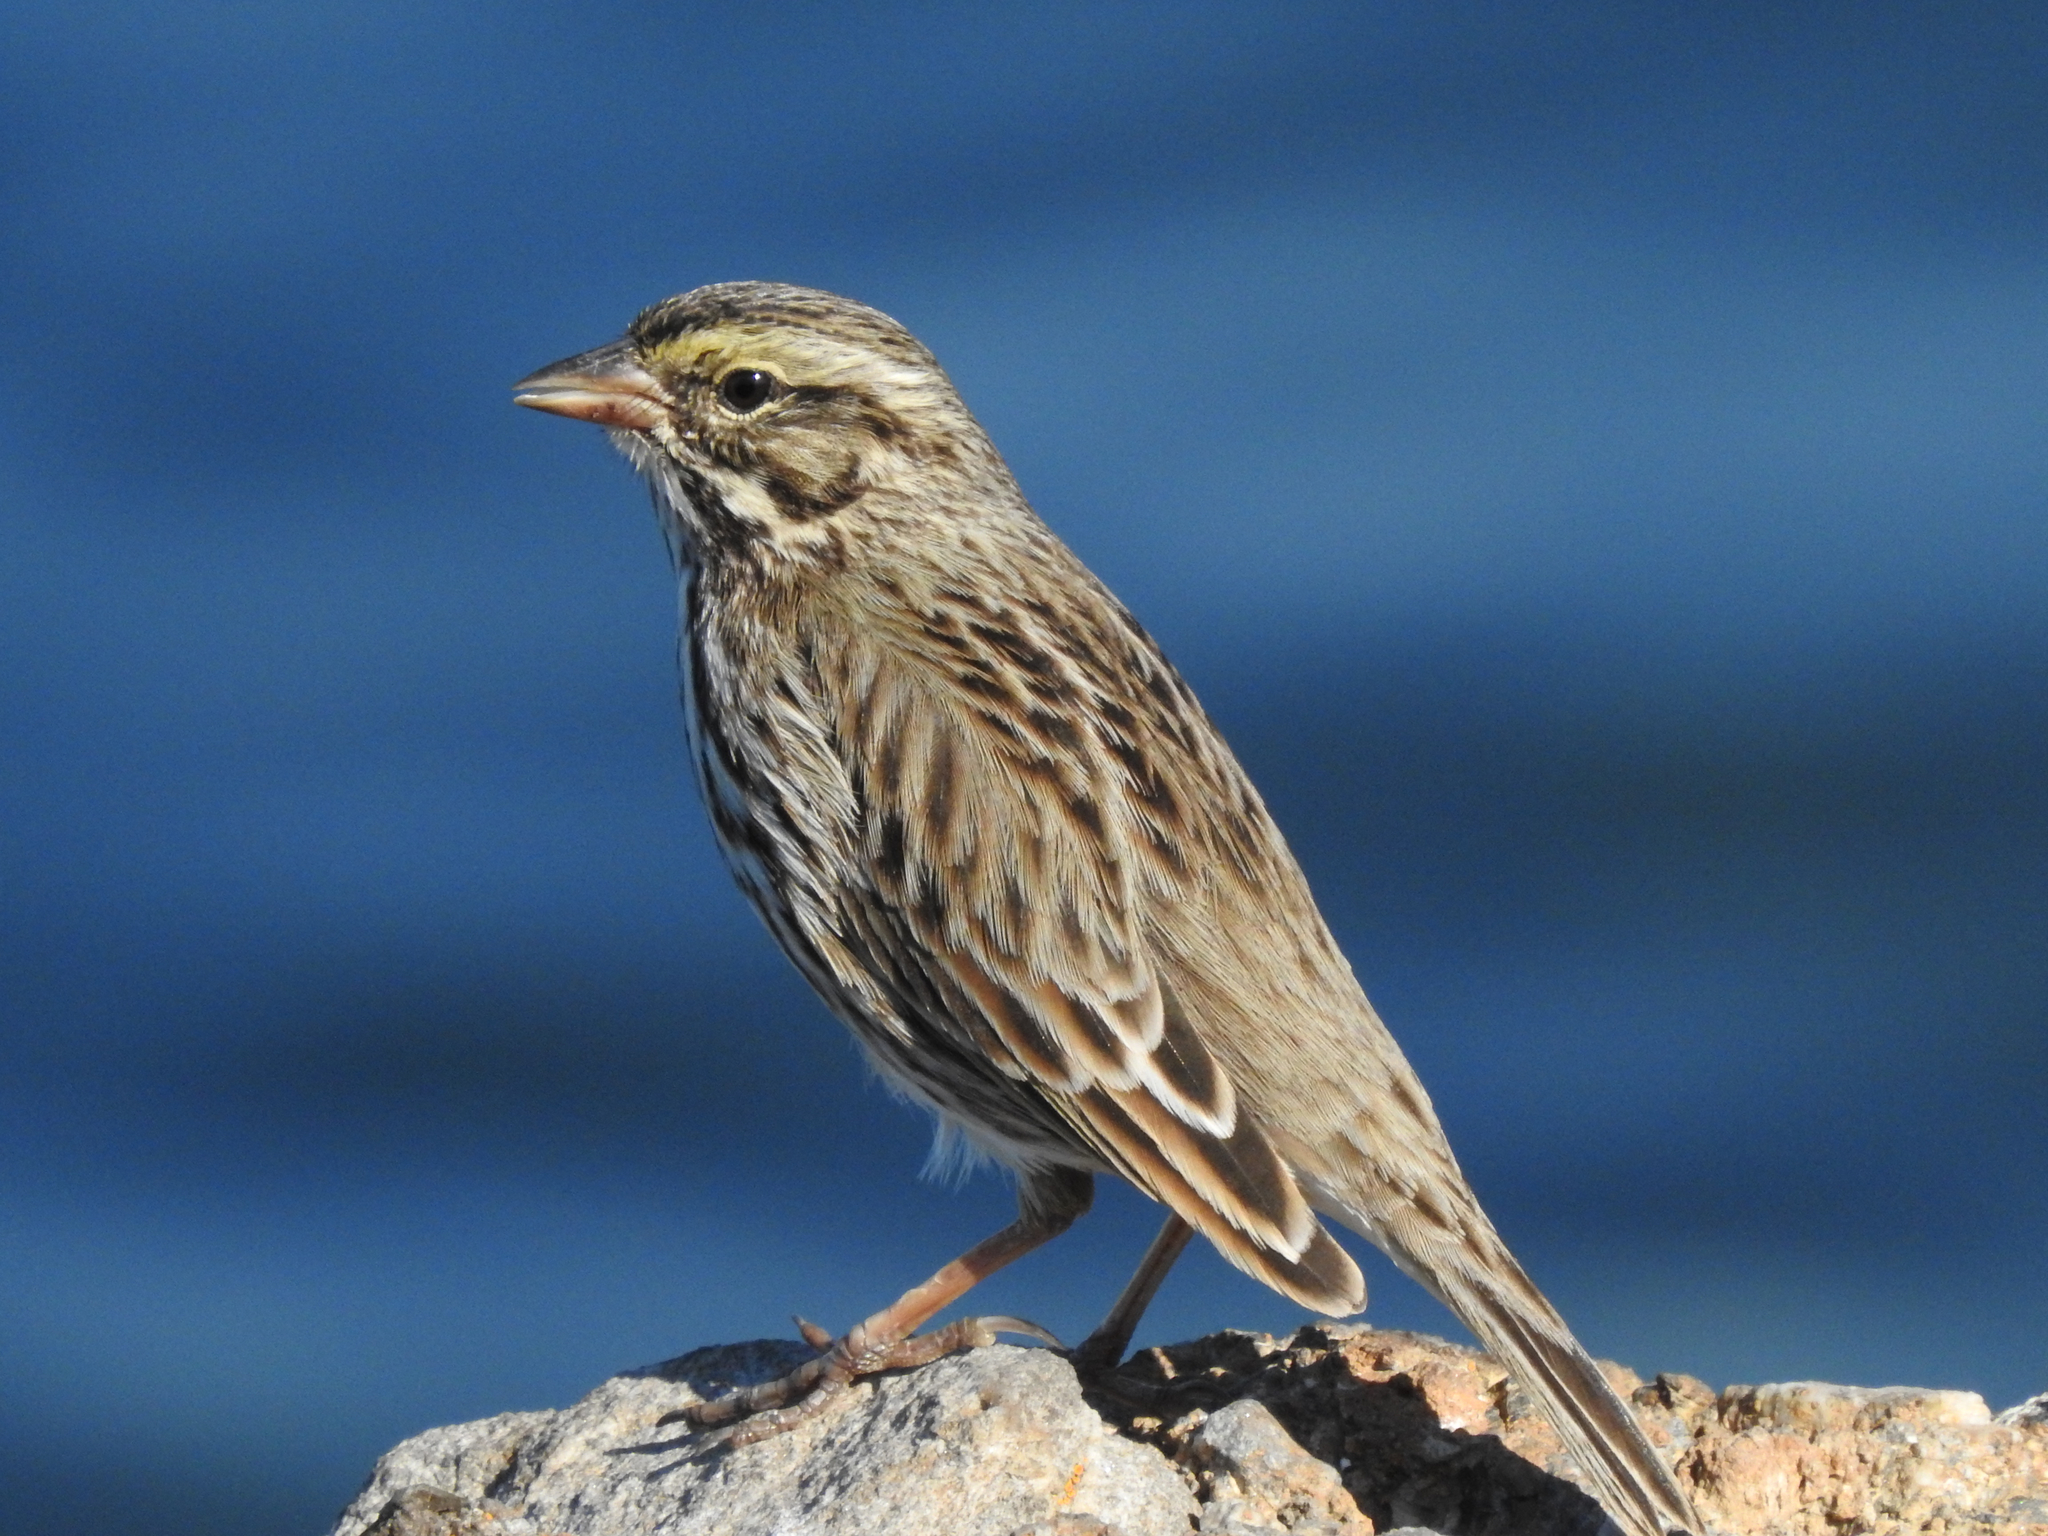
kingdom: Animalia
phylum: Chordata
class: Aves
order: Passeriformes
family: Passerellidae
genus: Passerculus
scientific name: Passerculus sandwichensis
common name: Savannah sparrow
